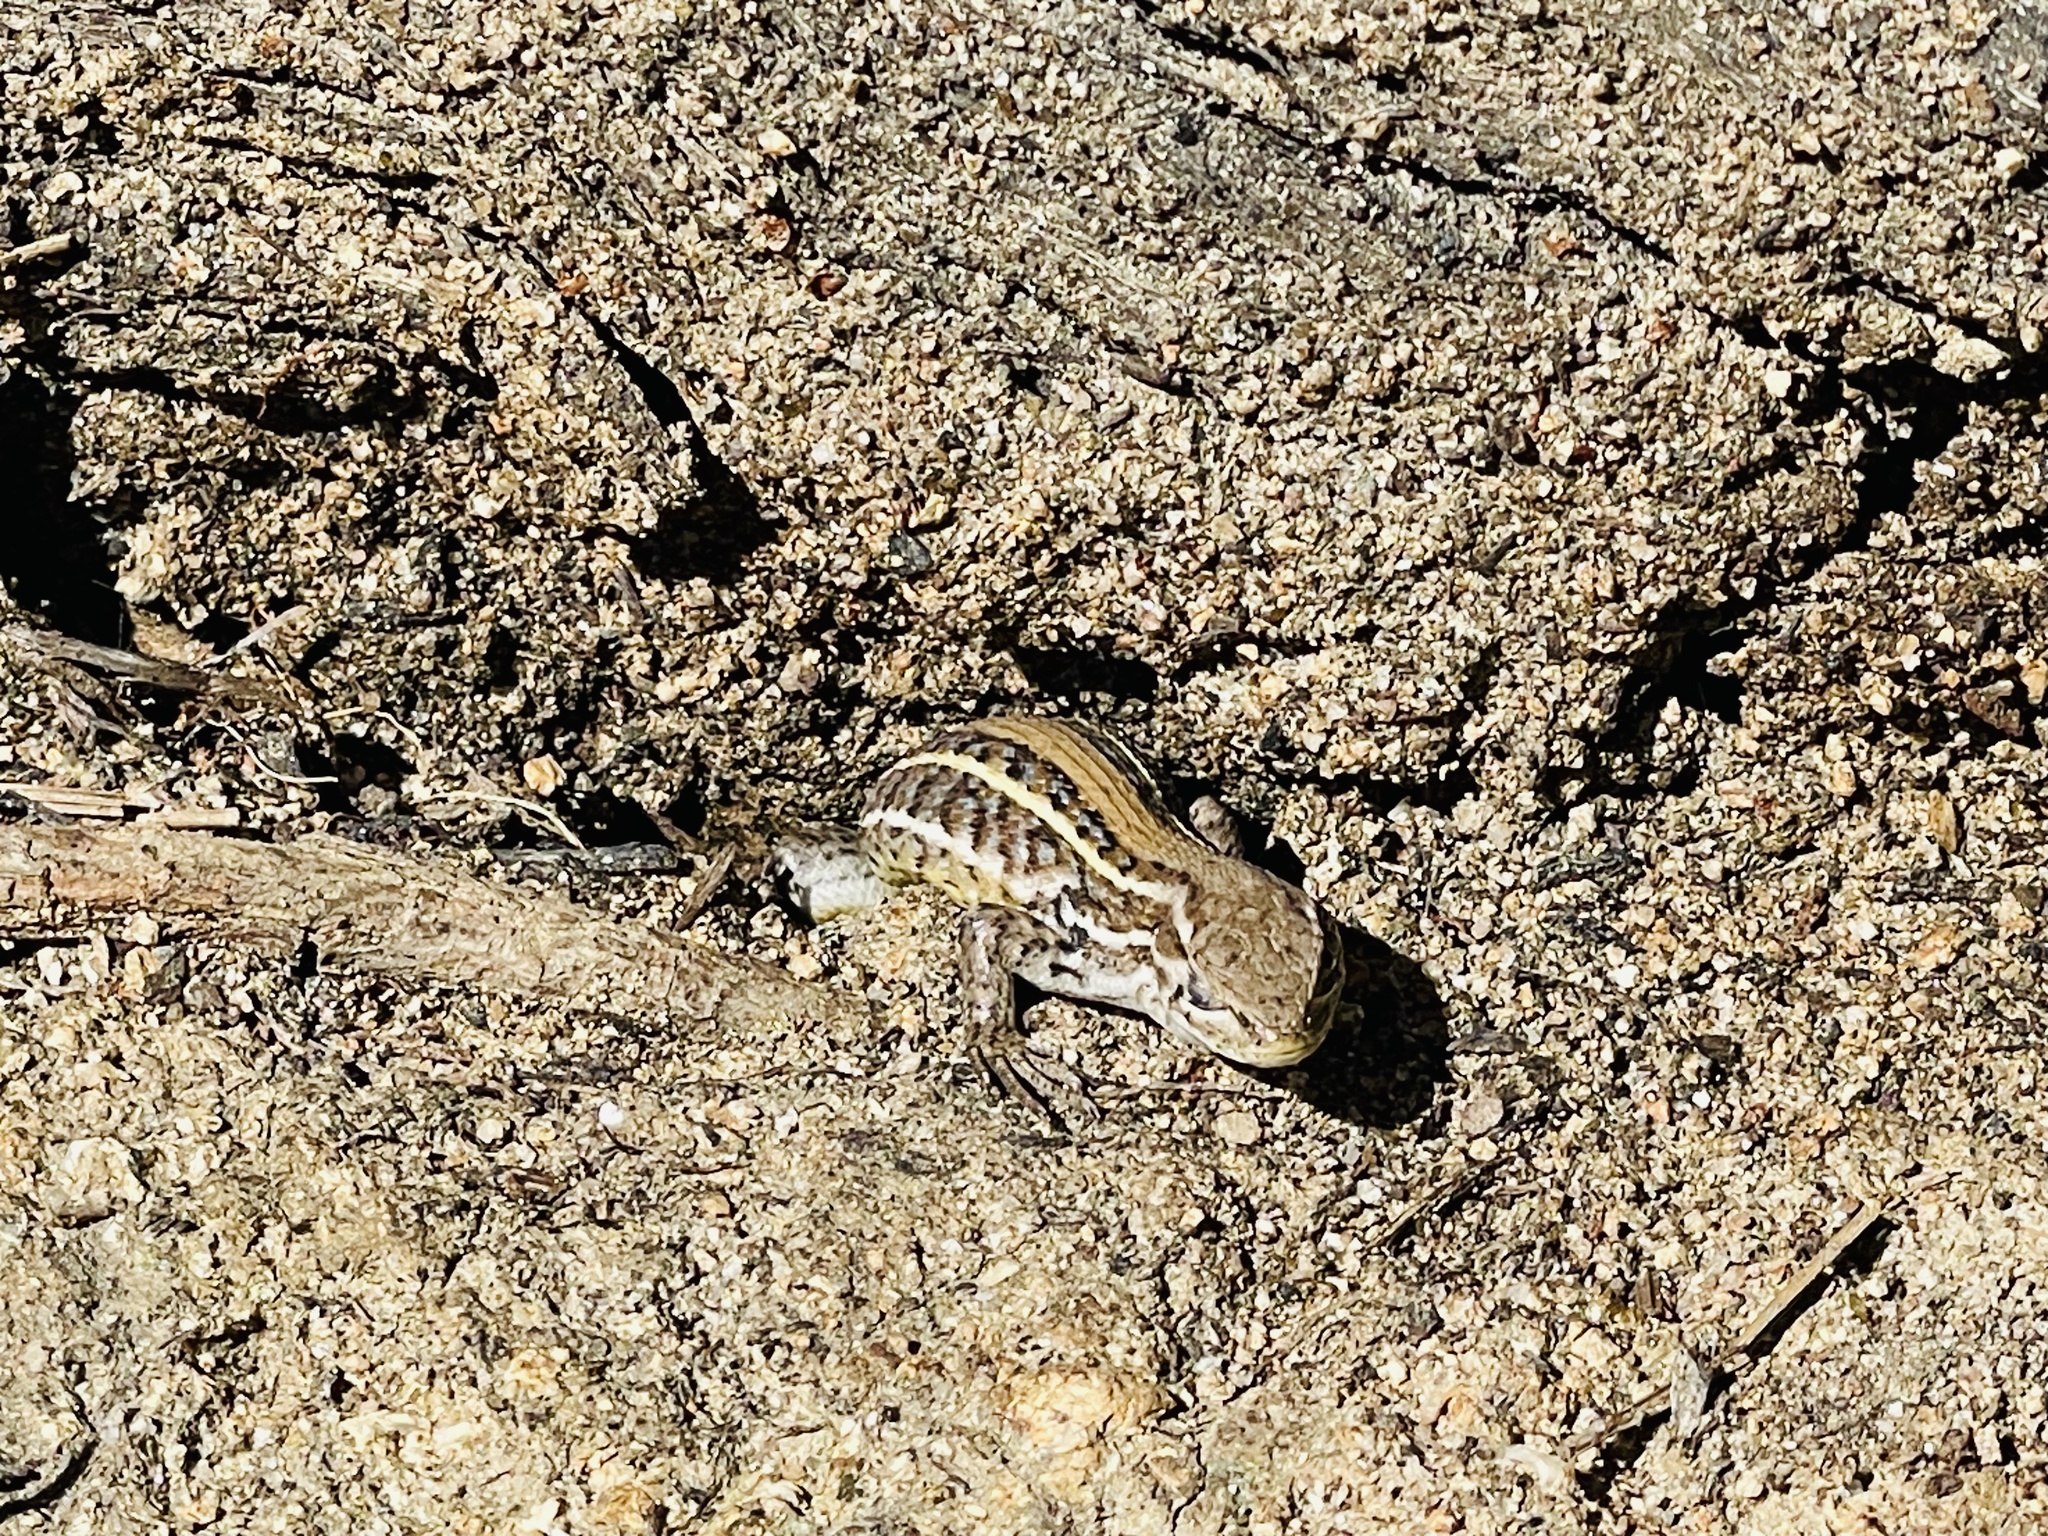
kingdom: Animalia
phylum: Chordata
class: Squamata
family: Liolaemidae
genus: Liolaemus
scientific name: Liolaemus lemniscatus
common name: Wreath tree iguana
